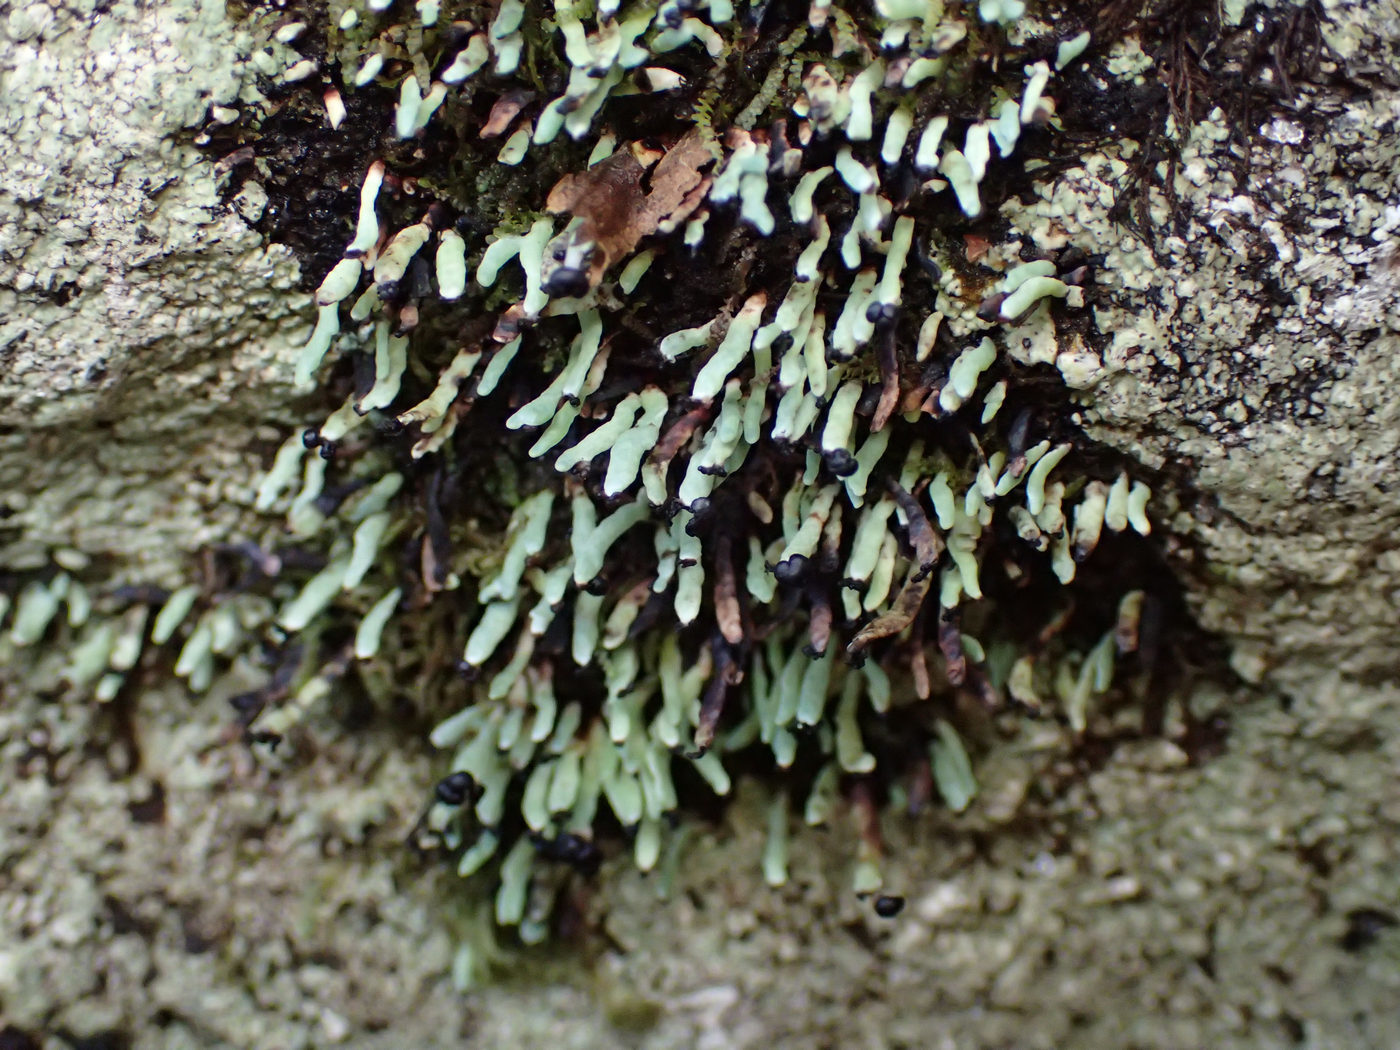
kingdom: Fungi
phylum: Ascomycota
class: Lecanoromycetes
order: Lecanorales
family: Cladoniaceae
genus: Cetradonia
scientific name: Cetradonia linearis
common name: Rock gnome lichen
